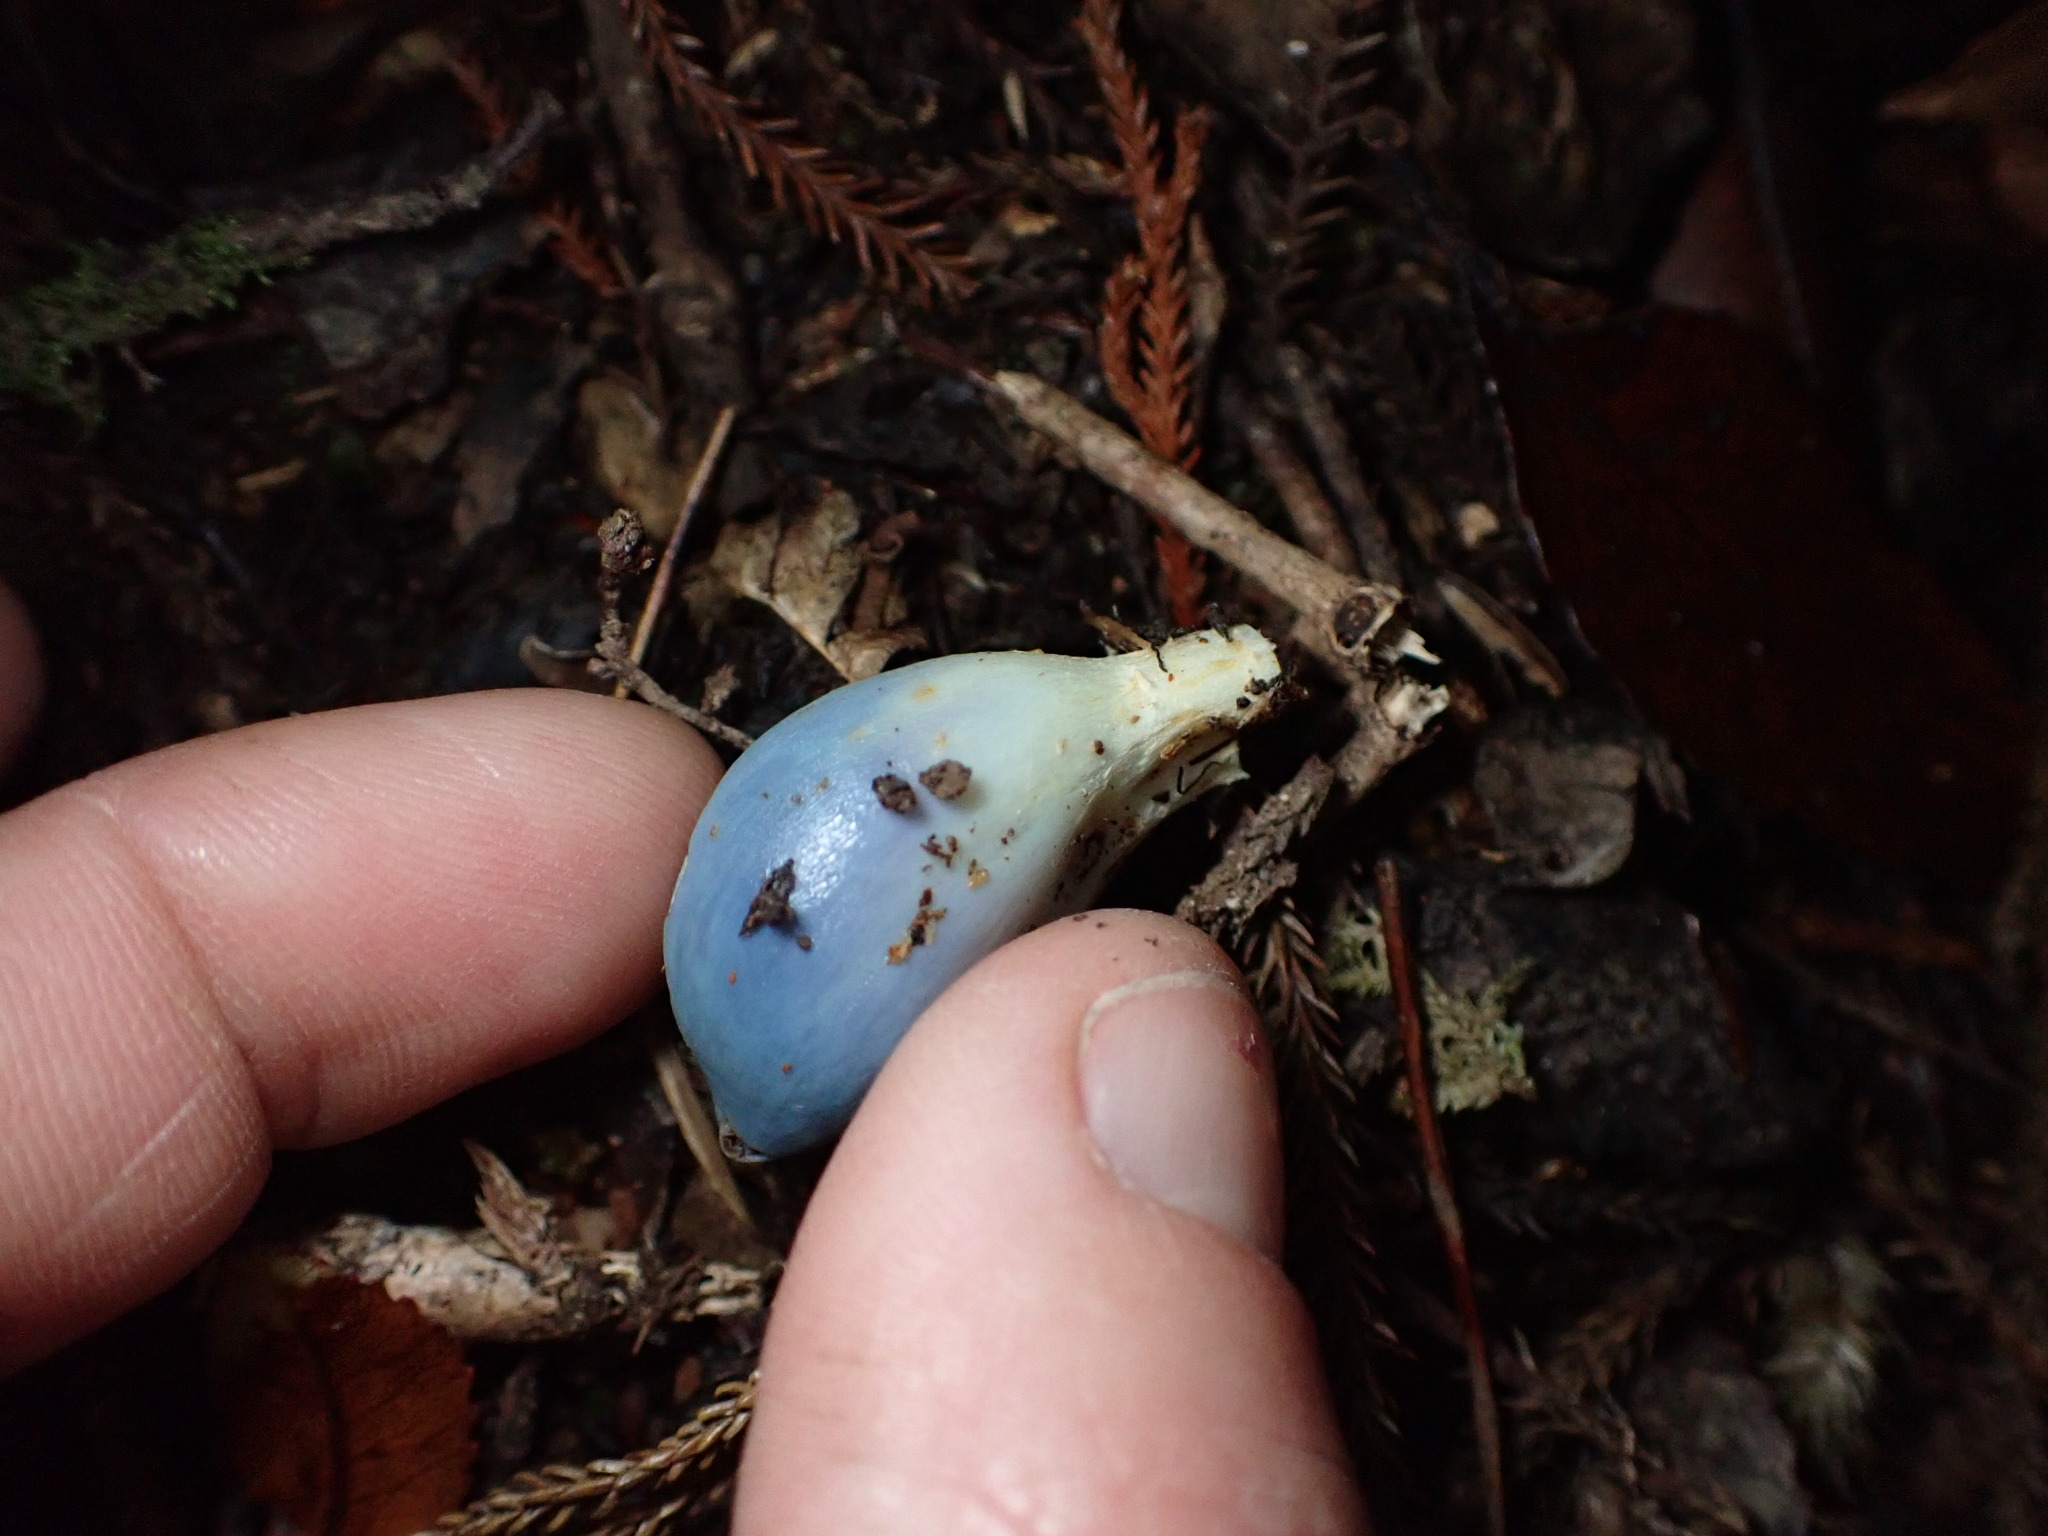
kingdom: Fungi
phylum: Basidiomycota
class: Agaricomycetes
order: Agaricales
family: Agaricaceae
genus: Clavogaster
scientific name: Clavogaster virescens
